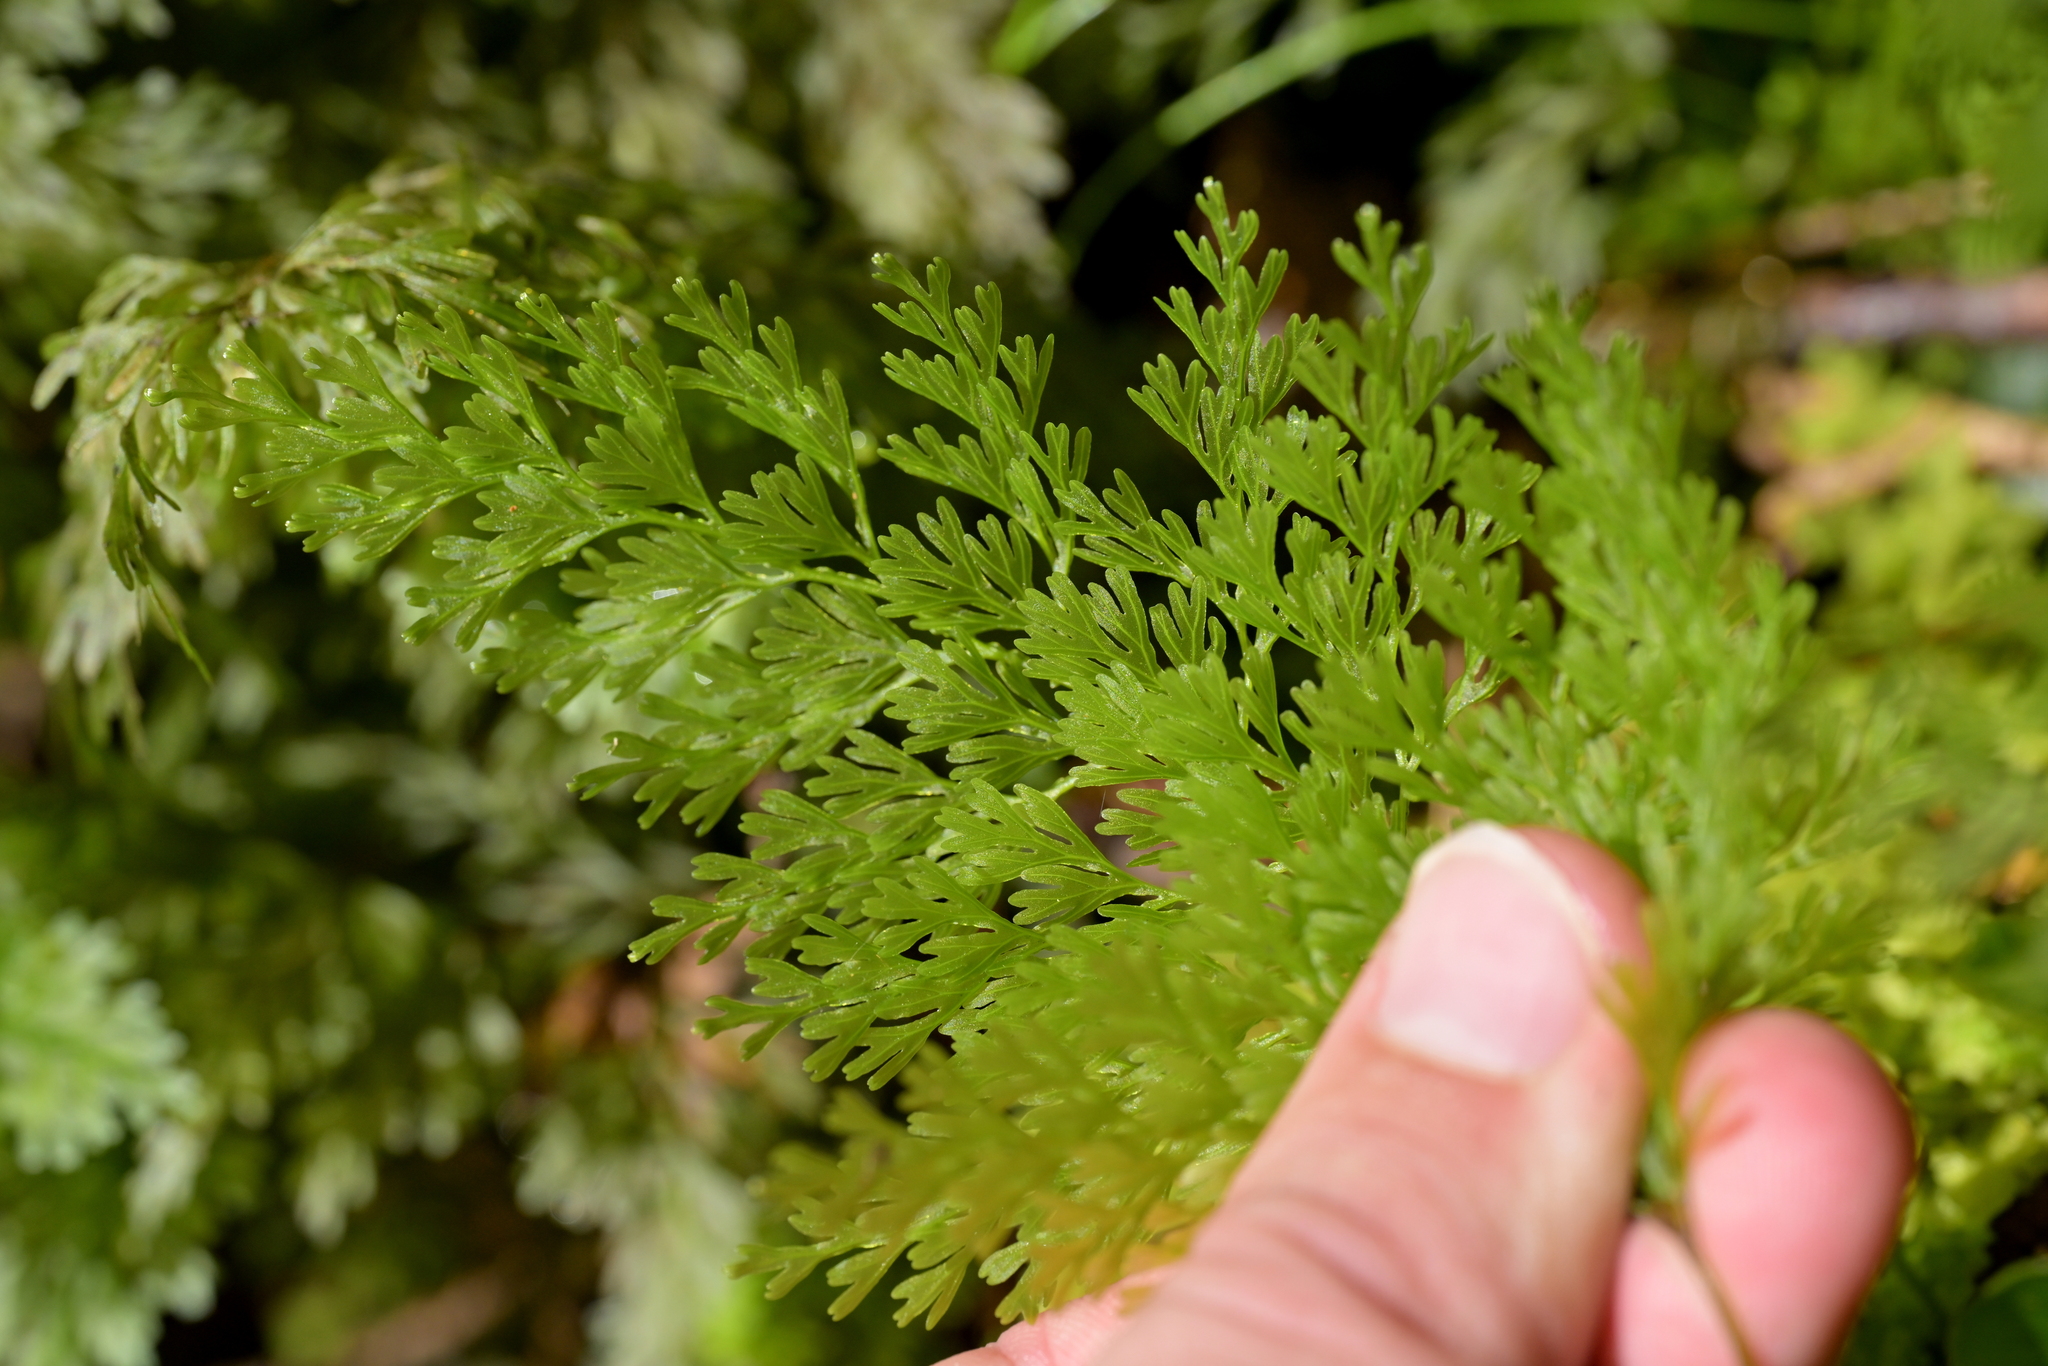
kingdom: Plantae
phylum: Tracheophyta
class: Polypodiopsida
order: Hymenophyllales
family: Hymenophyllaceae
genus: Hymenophyllum
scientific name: Hymenophyllum demissum
